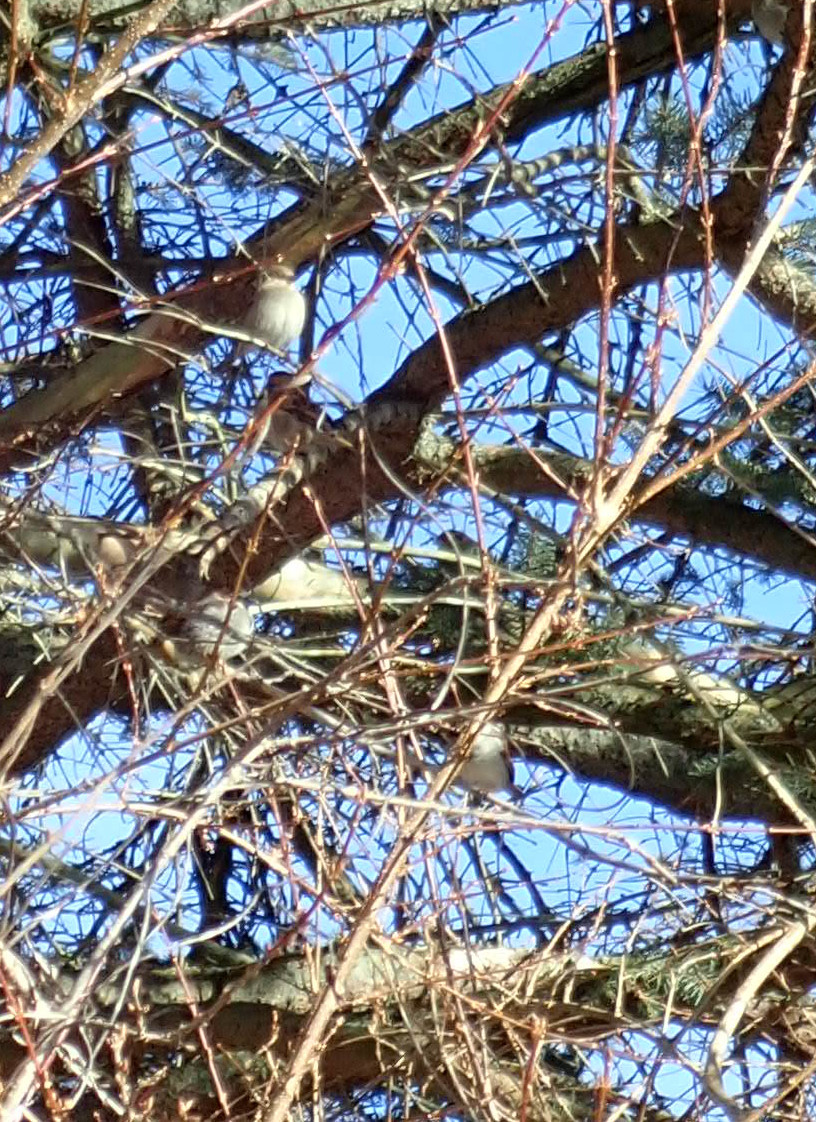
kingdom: Animalia
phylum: Chordata
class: Aves
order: Passeriformes
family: Passeridae
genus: Passer
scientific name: Passer domesticus
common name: House sparrow
